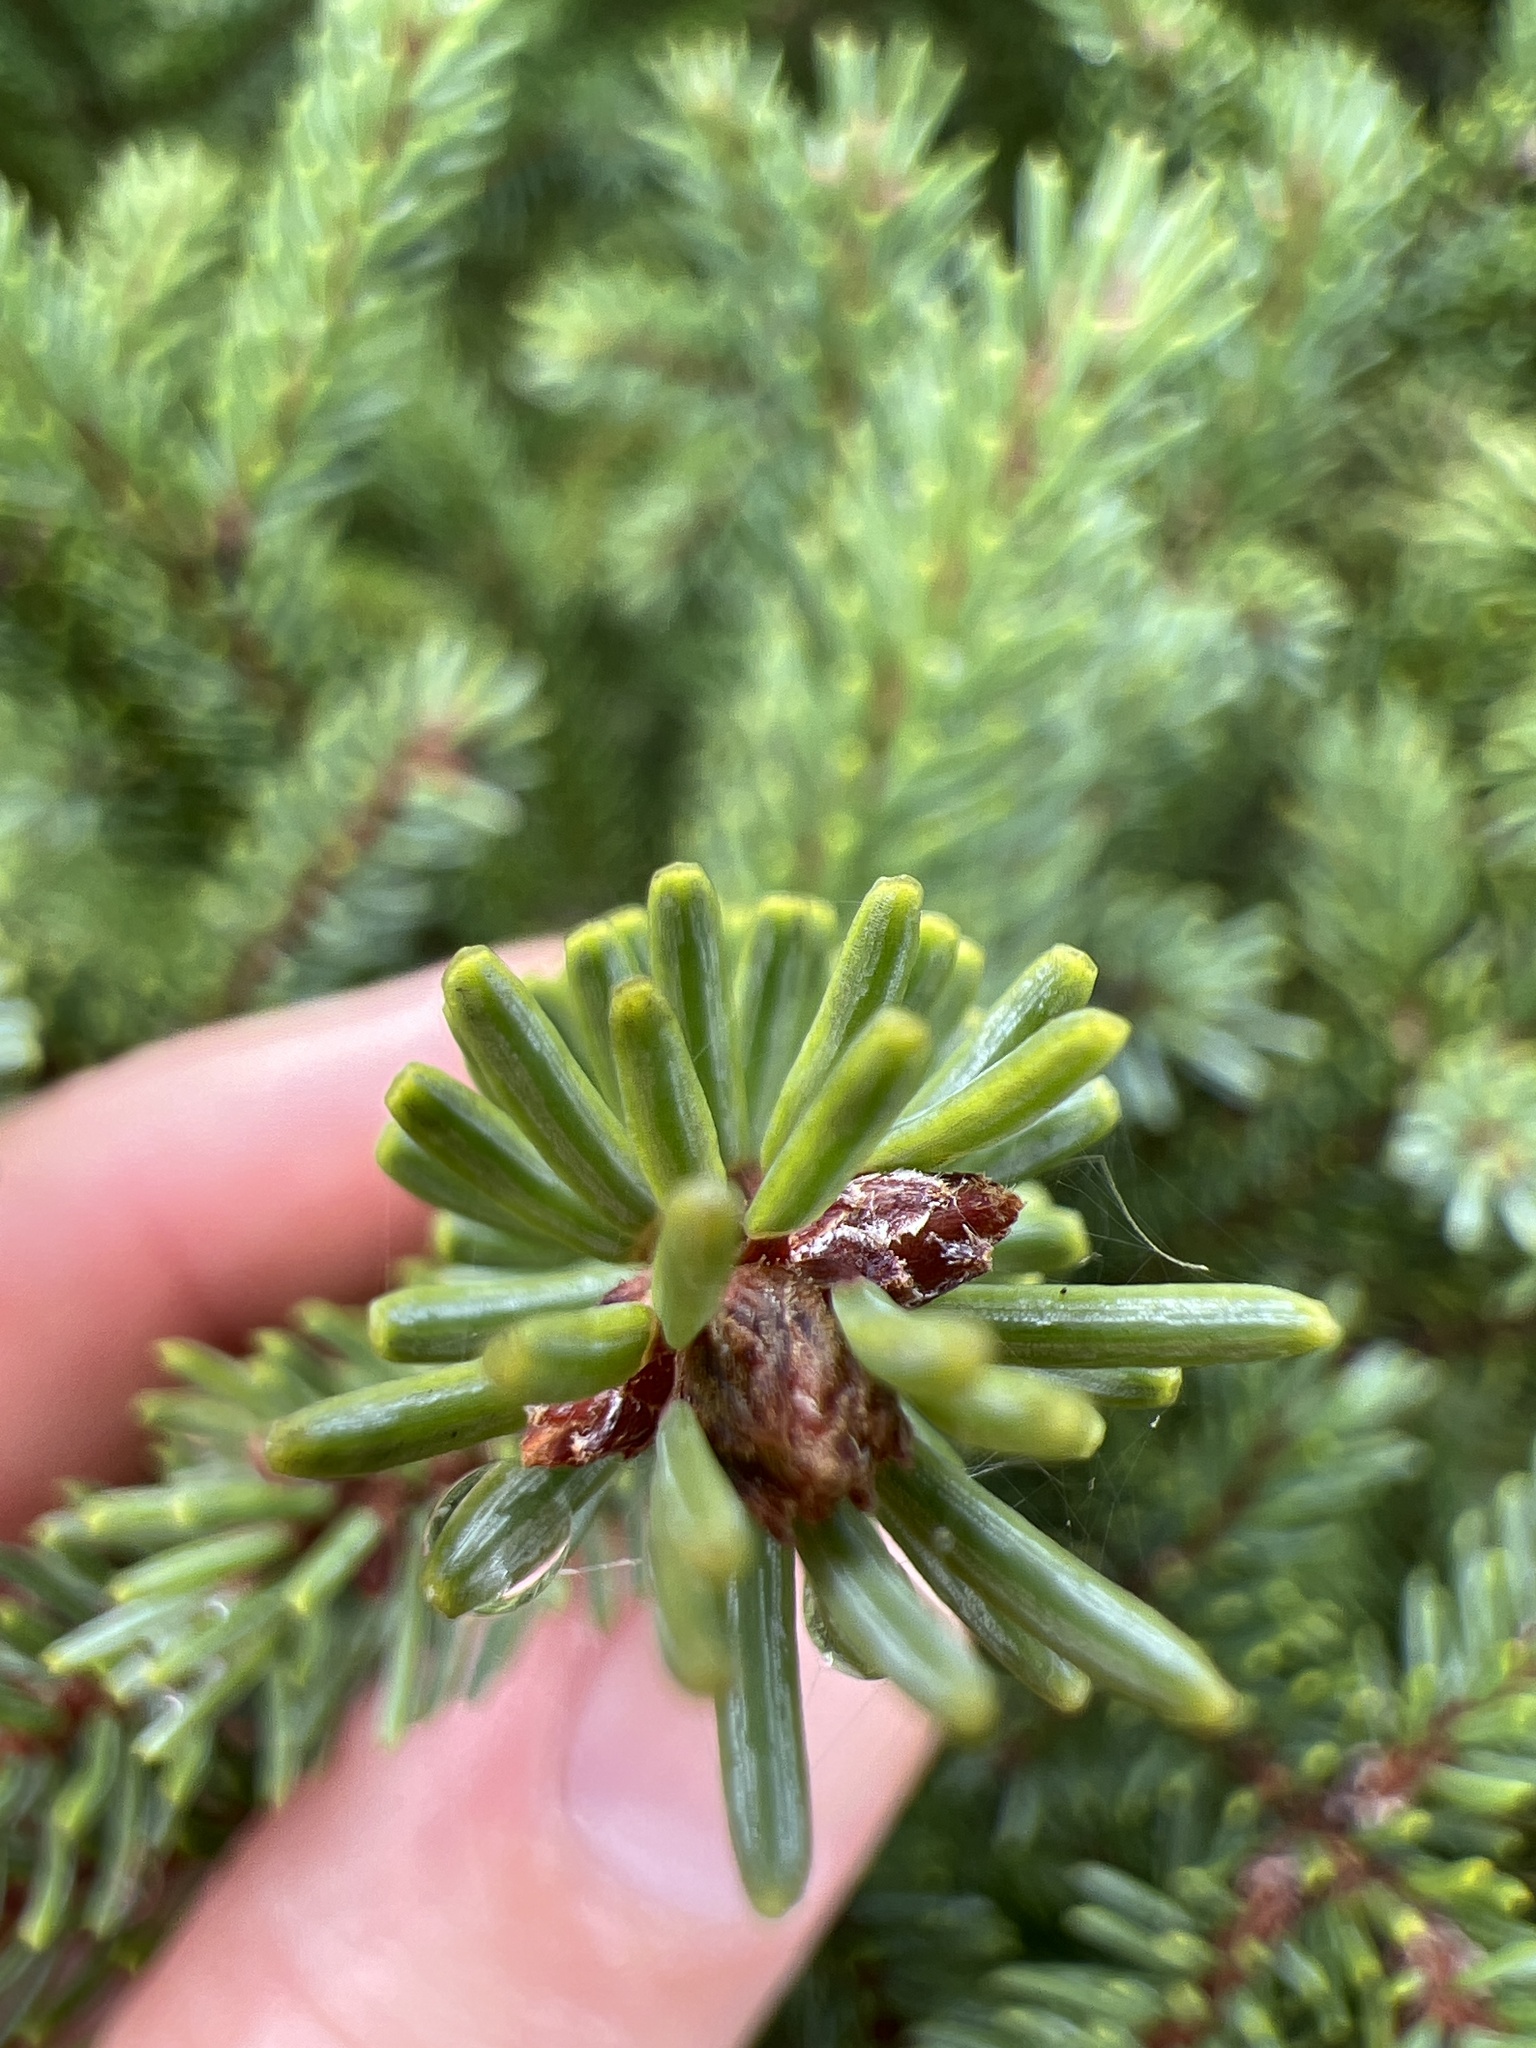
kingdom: Plantae
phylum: Tracheophyta
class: Pinopsida
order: Pinales
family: Pinaceae
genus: Picea
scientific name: Picea mariana
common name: Black spruce
